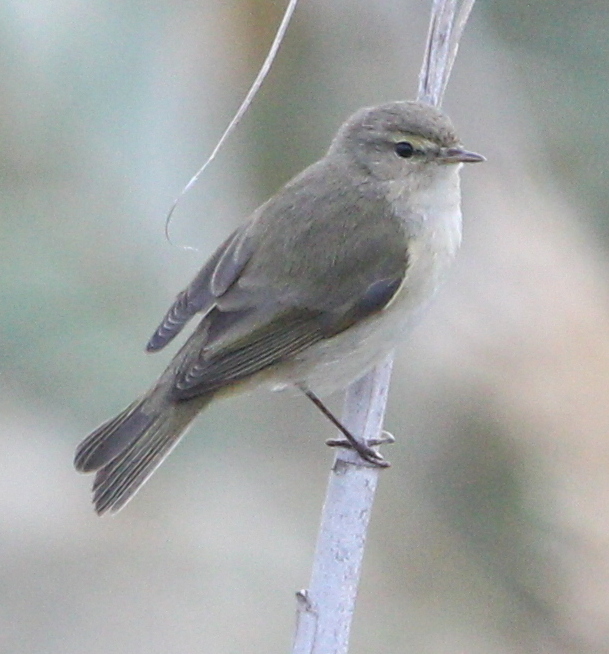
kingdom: Animalia
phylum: Chordata
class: Aves
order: Passeriformes
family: Phylloscopidae
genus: Phylloscopus
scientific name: Phylloscopus collybita
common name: Common chiffchaff
